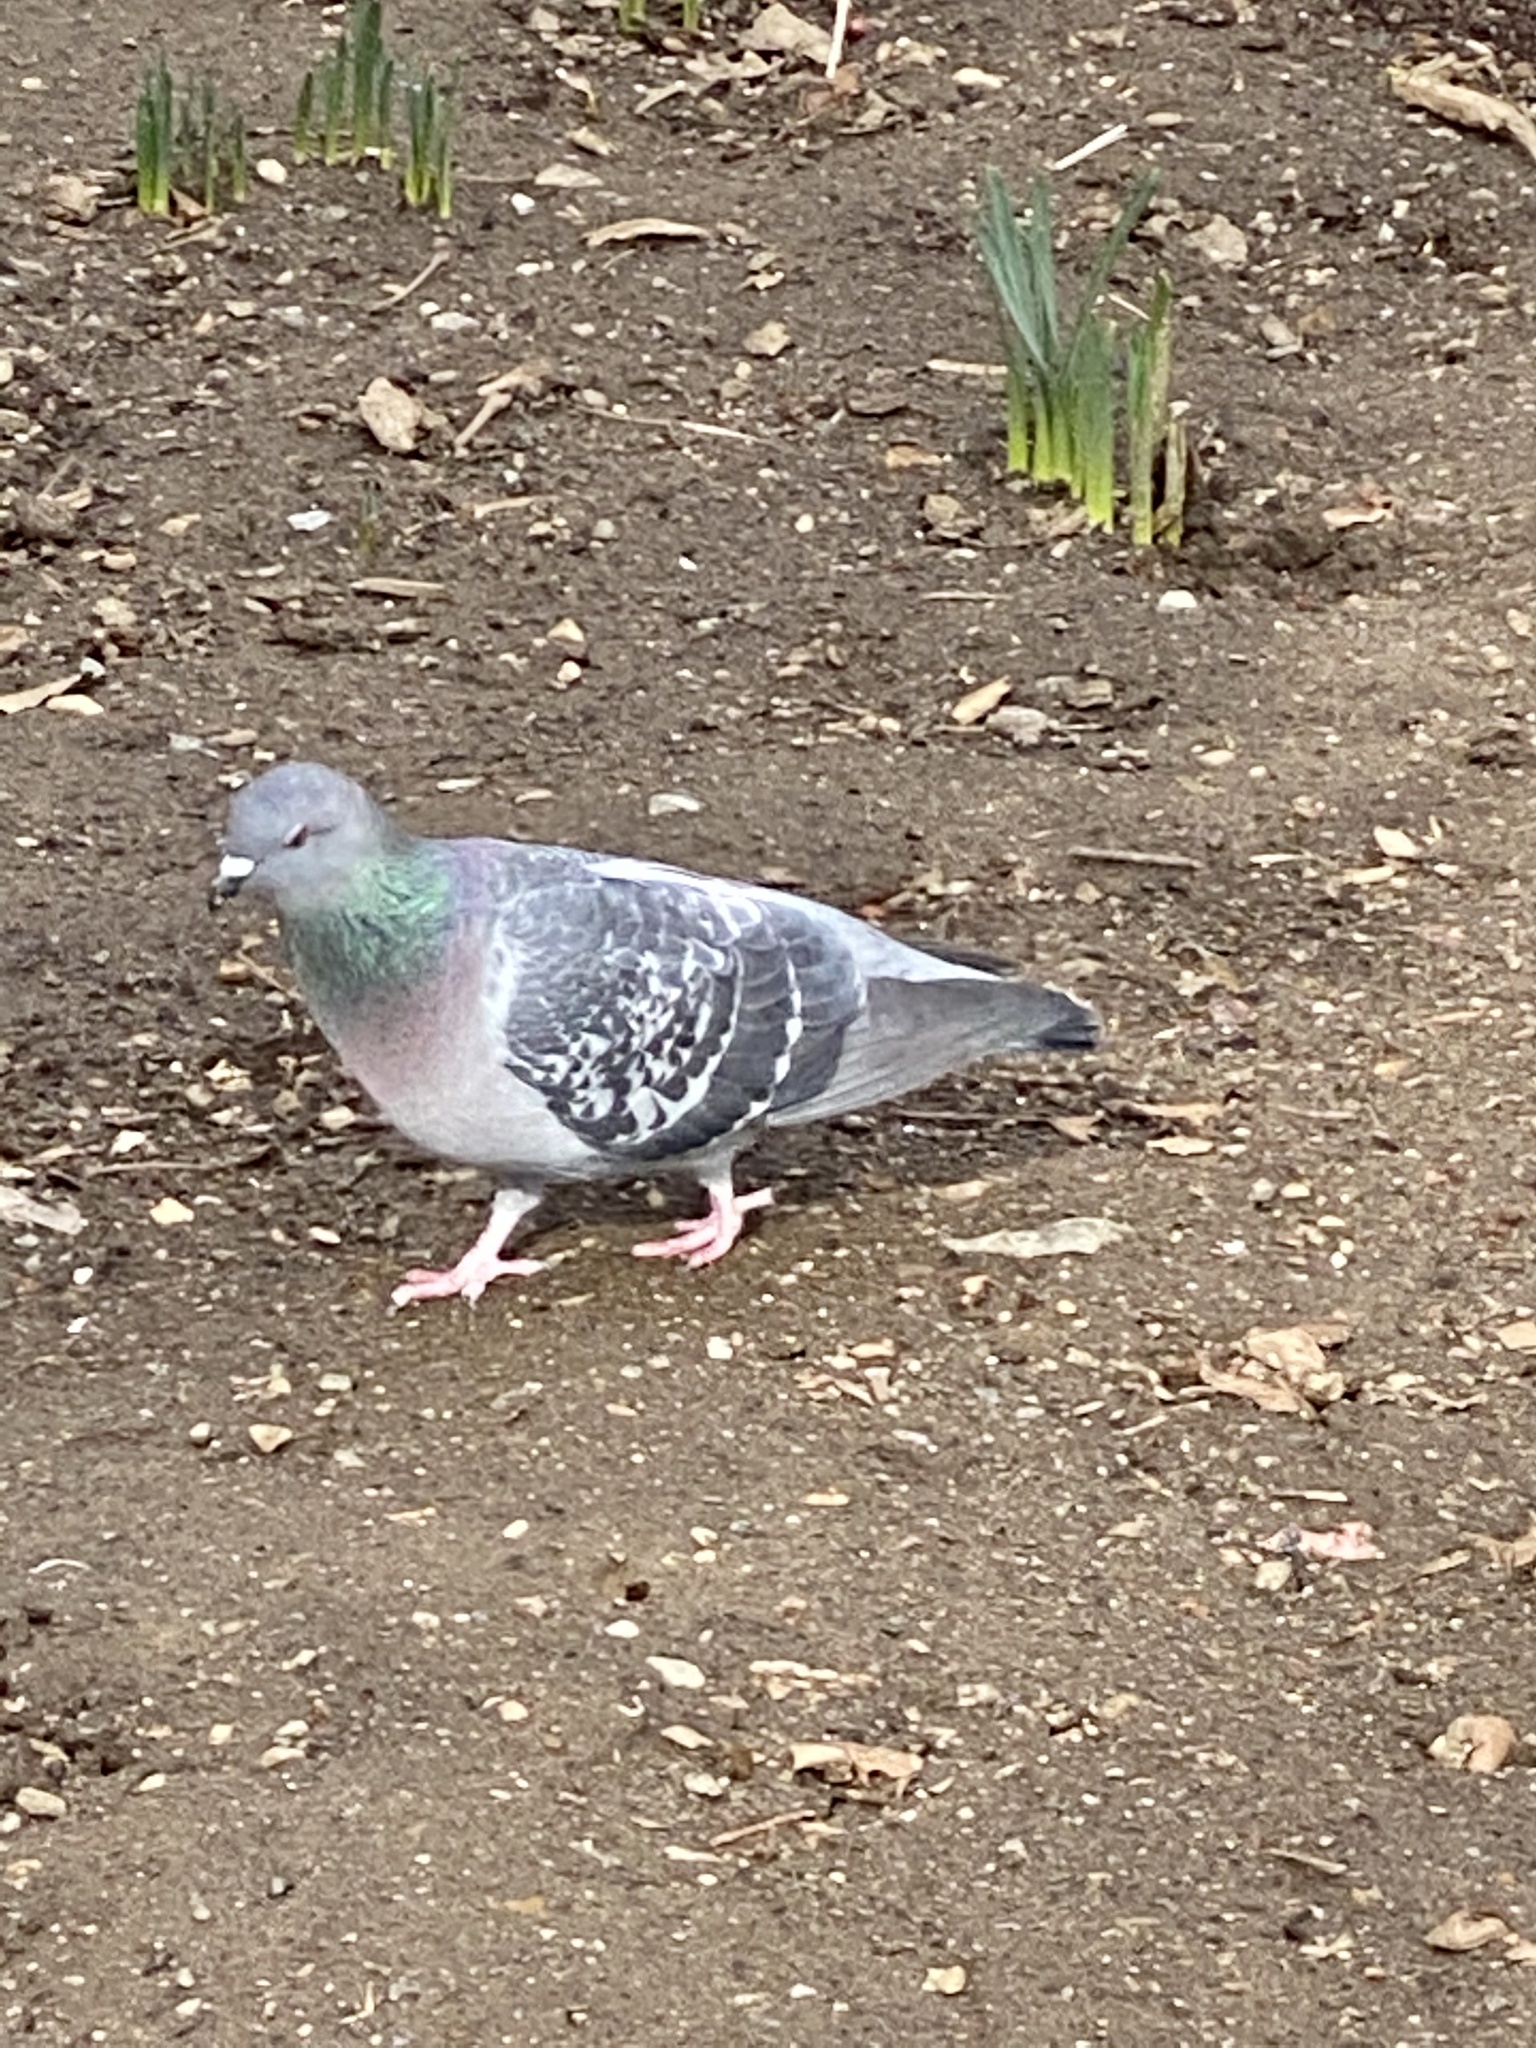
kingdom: Animalia
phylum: Chordata
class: Aves
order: Columbiformes
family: Columbidae
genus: Columba
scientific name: Columba livia
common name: Rock pigeon
